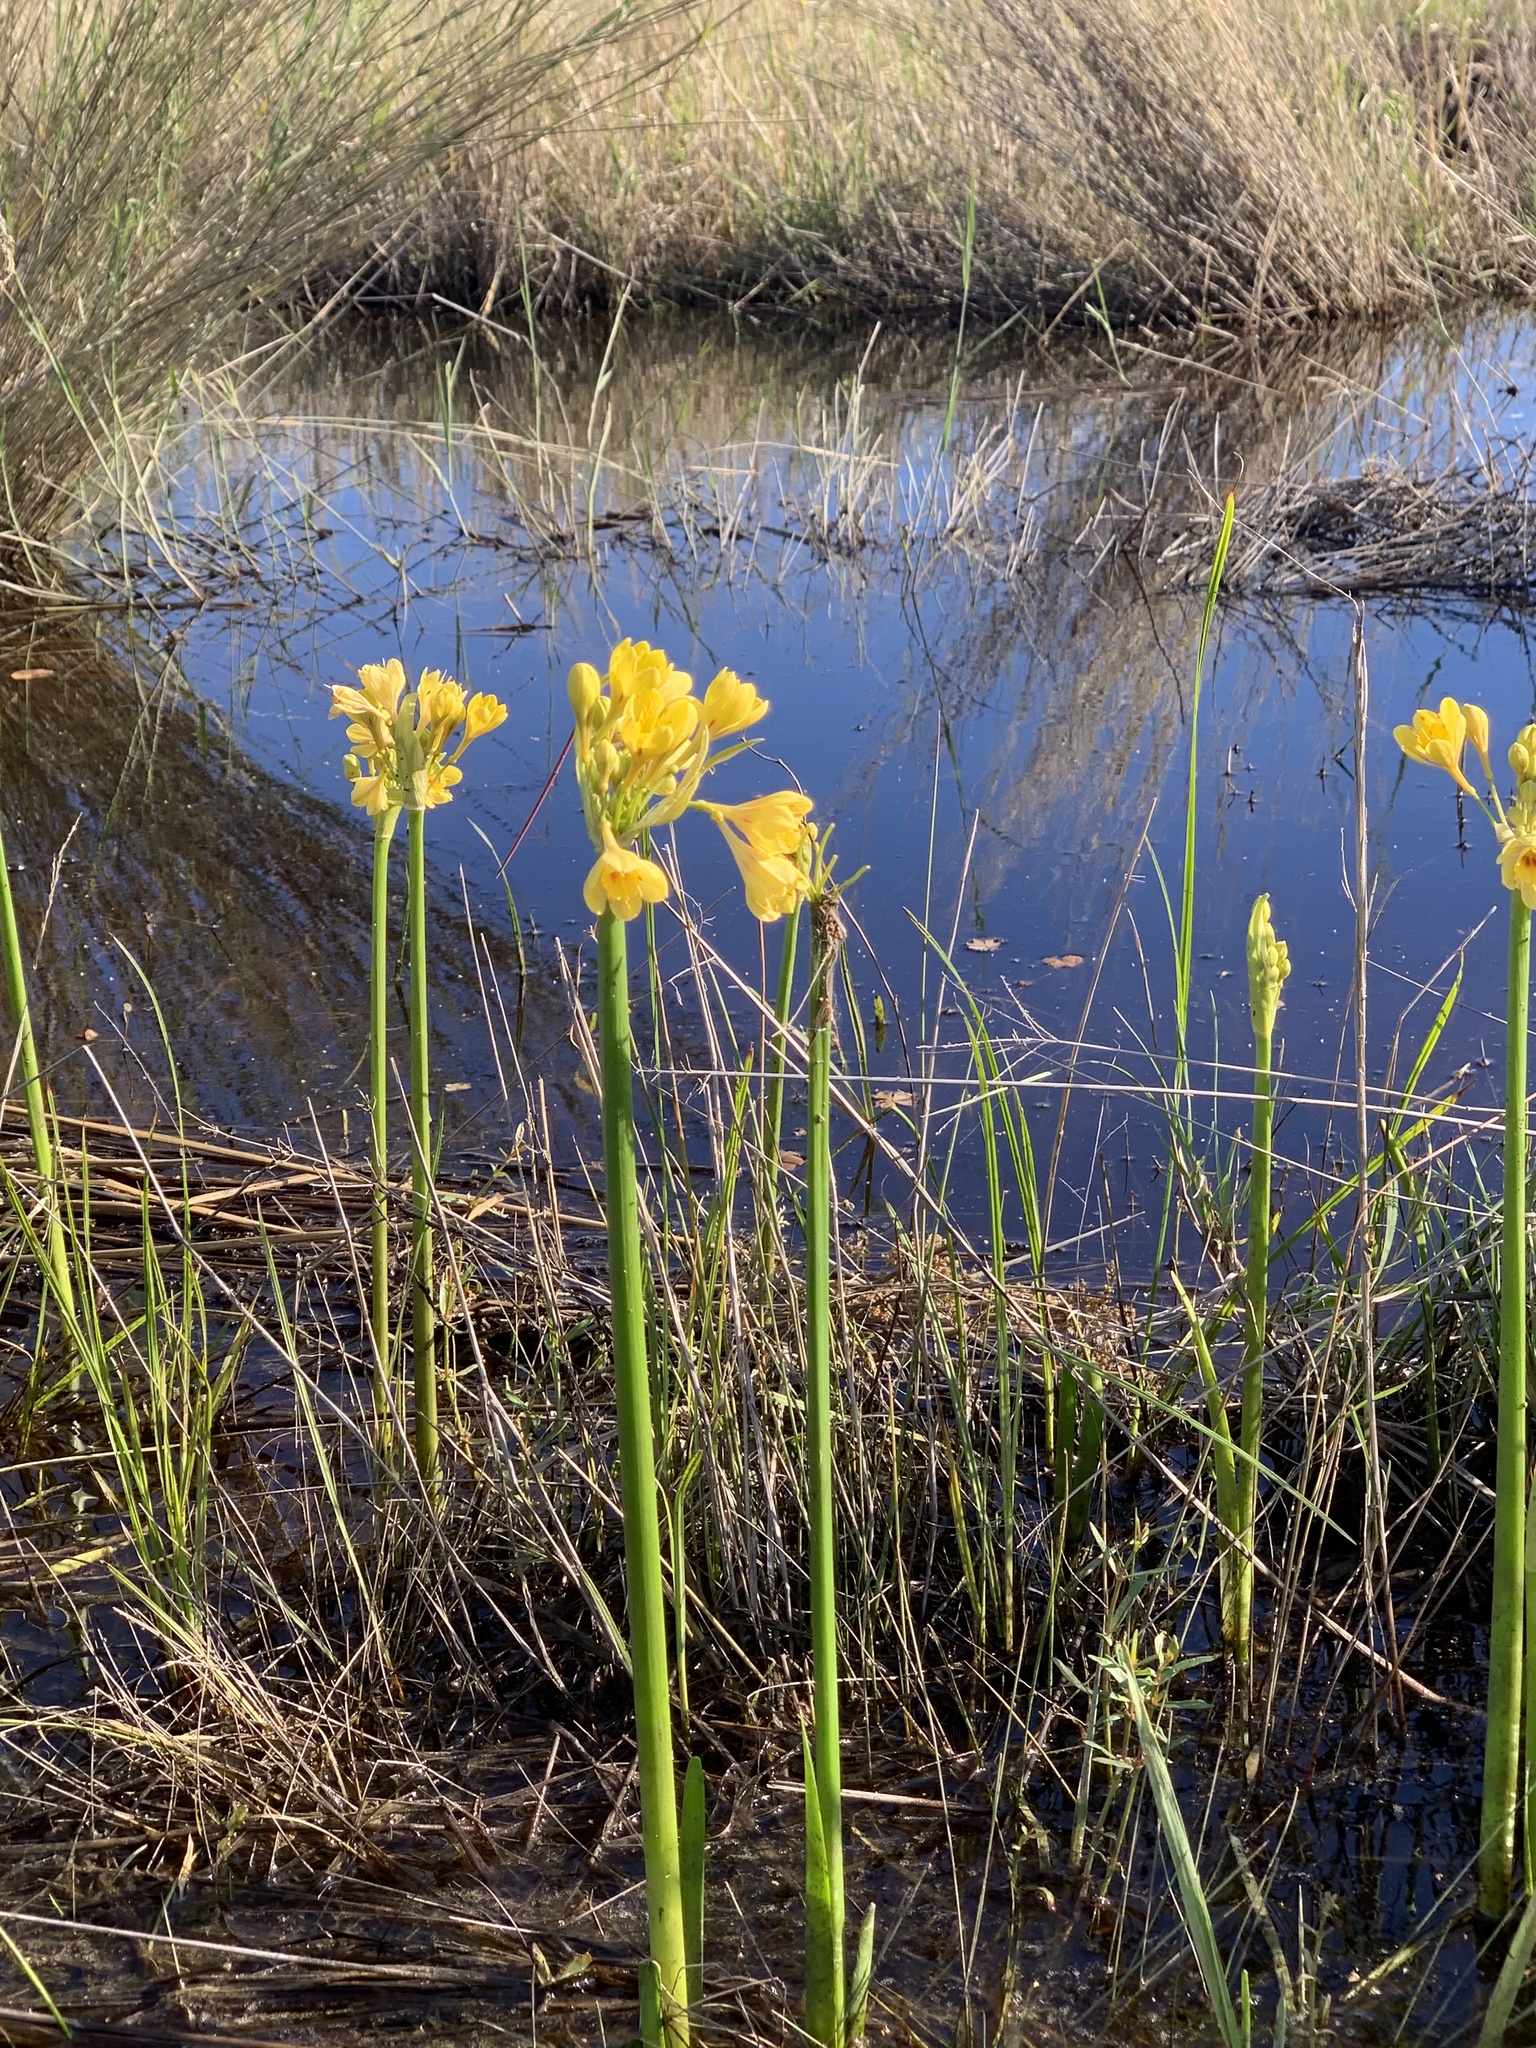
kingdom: Plantae
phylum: Tracheophyta
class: Liliopsida
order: Asparagales
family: Amaryllidaceae
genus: Calostemma
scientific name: Calostemma luteum
